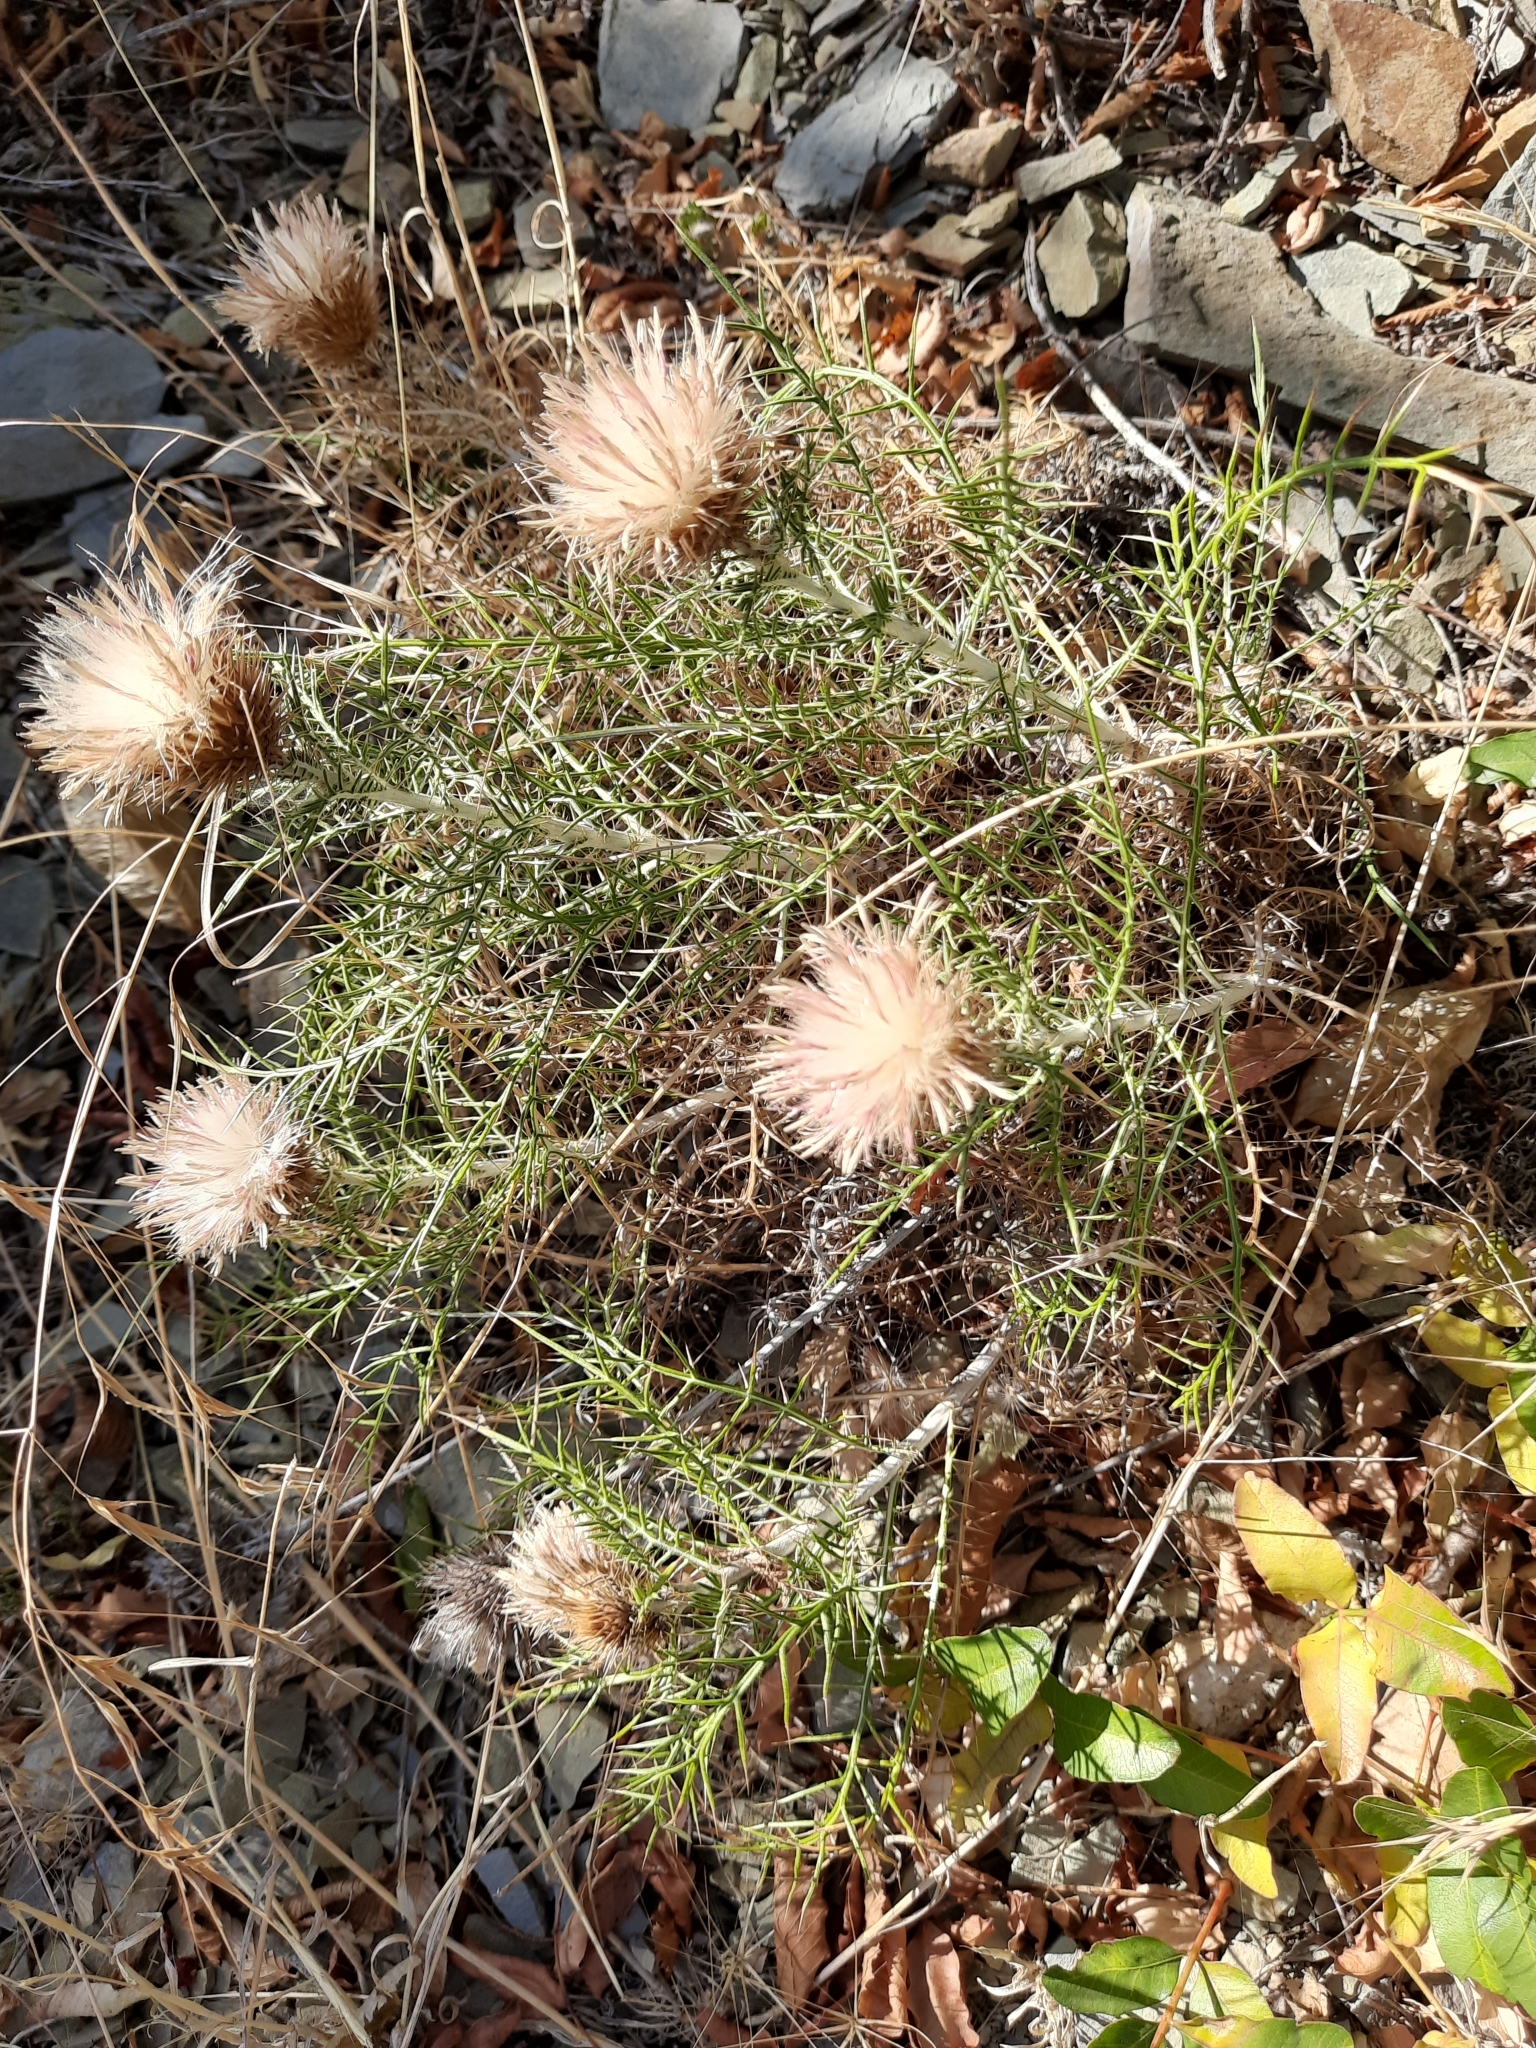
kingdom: Plantae
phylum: Tracheophyta
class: Magnoliopsida
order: Asterales
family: Asteraceae
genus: Ptilostemon
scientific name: Ptilostemon echinocephalus
